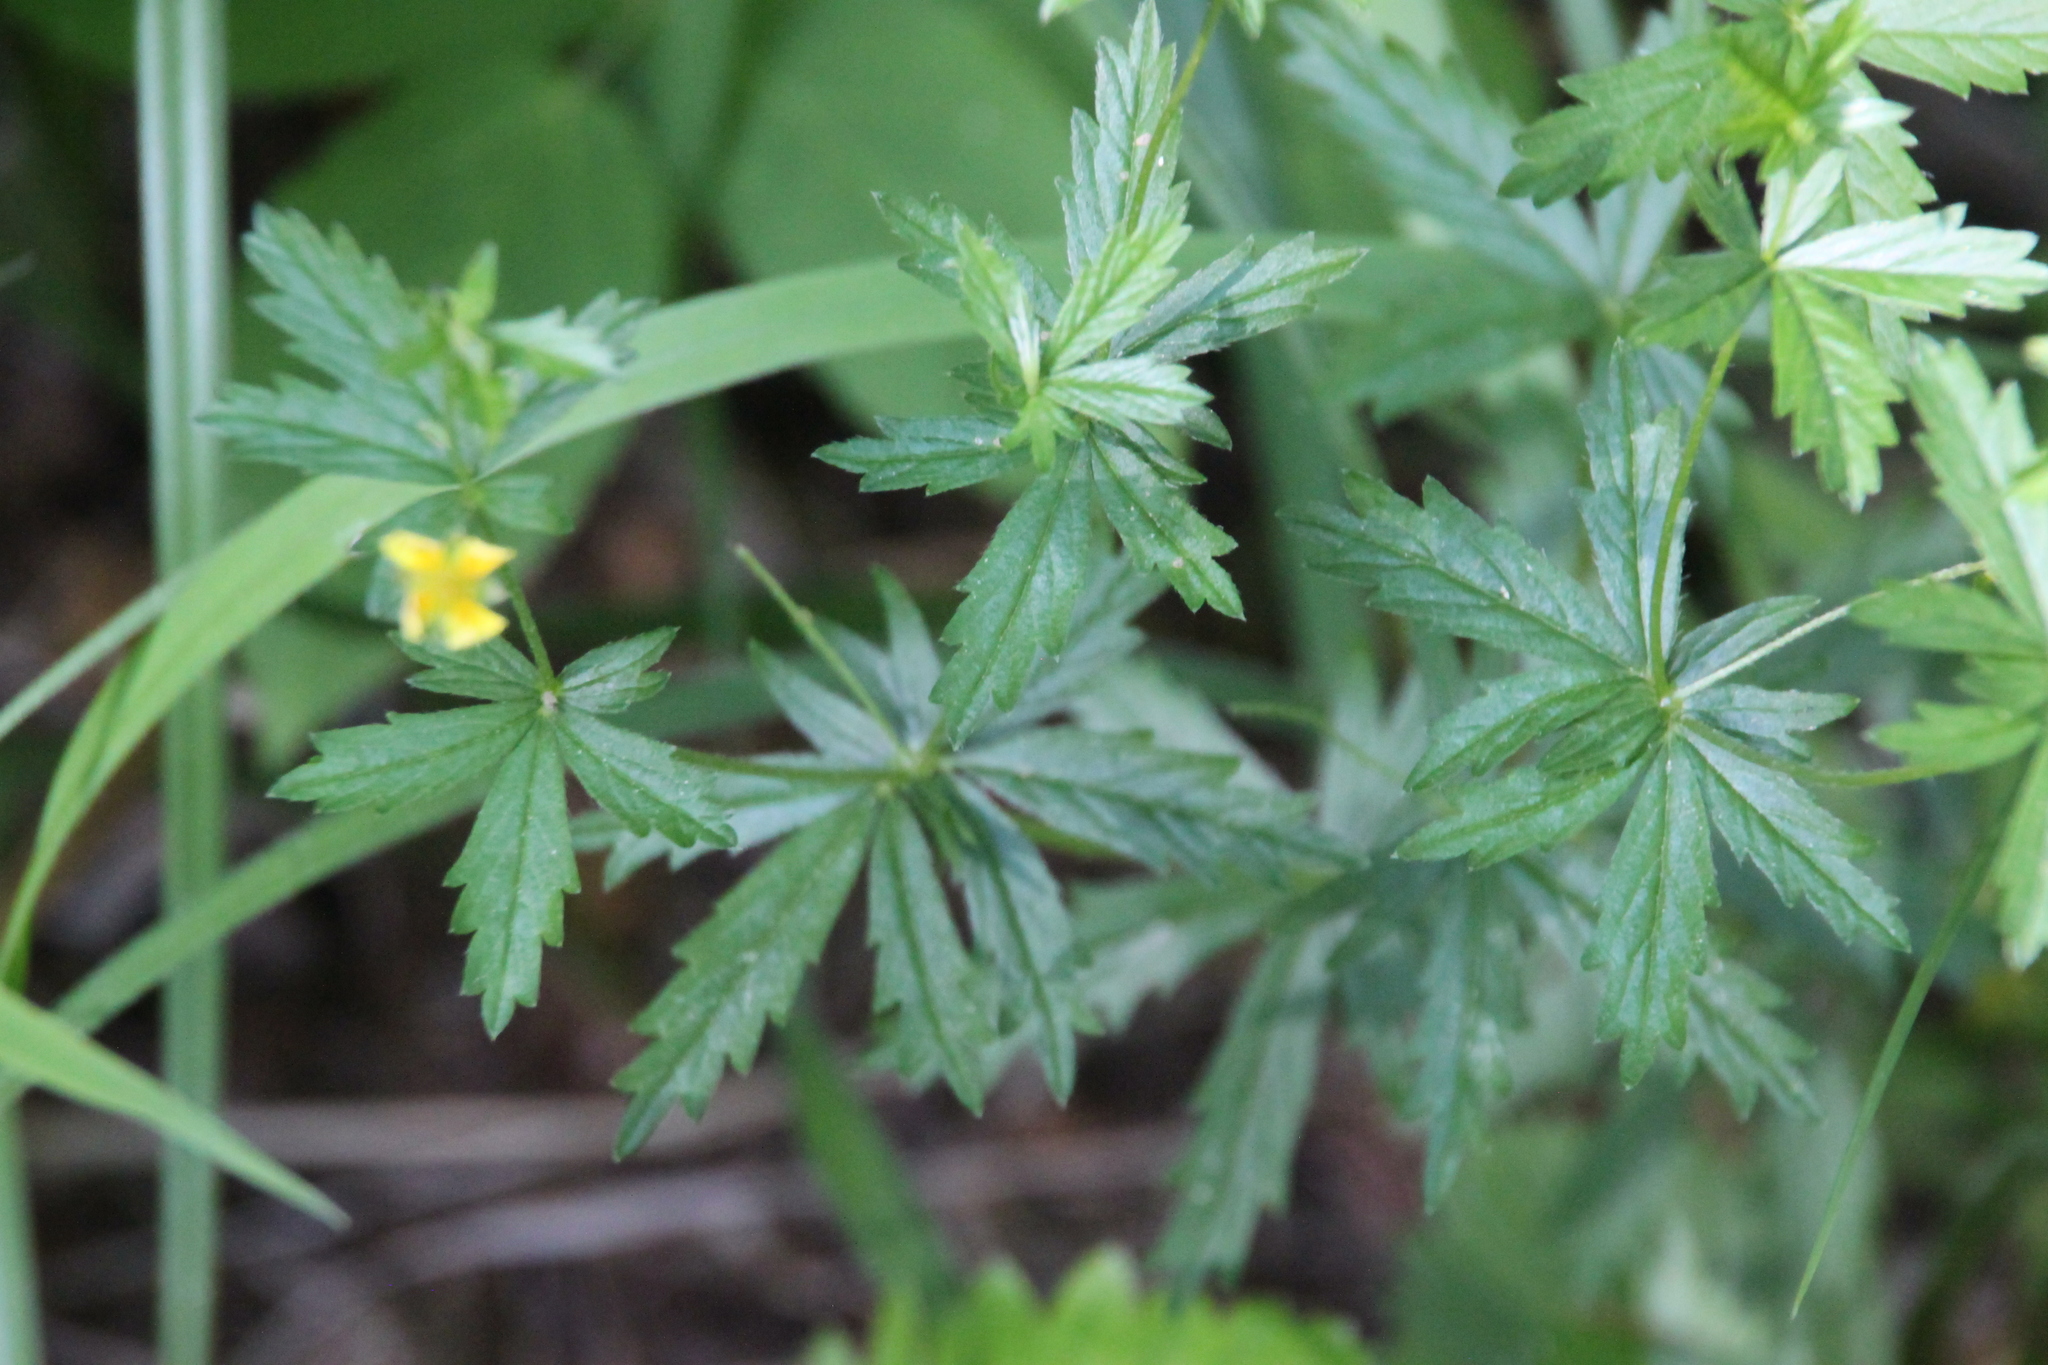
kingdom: Plantae
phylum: Tracheophyta
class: Magnoliopsida
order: Rosales
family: Rosaceae
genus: Potentilla
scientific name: Potentilla erecta
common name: Tormentil
